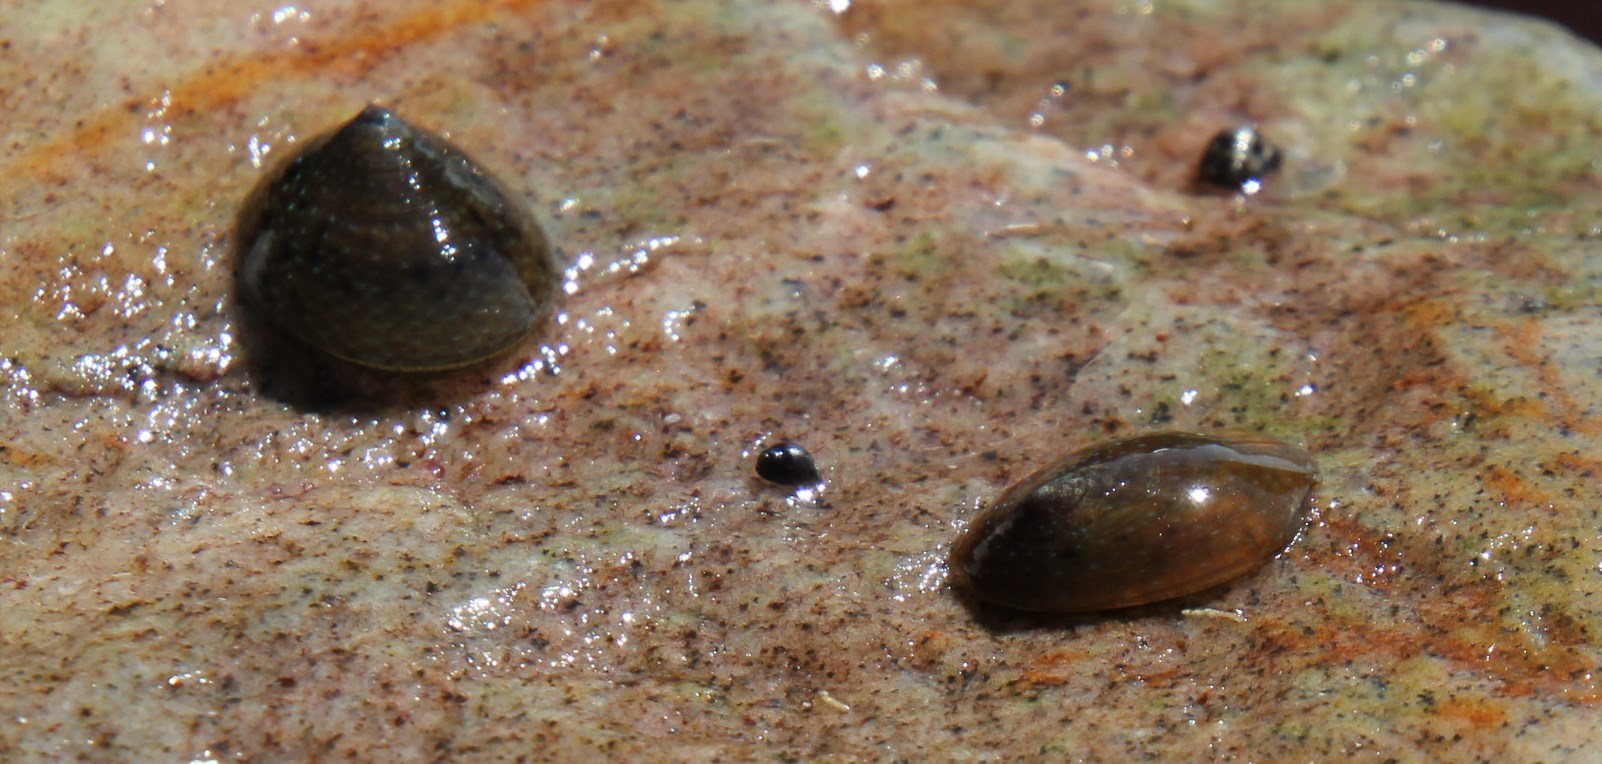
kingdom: Animalia
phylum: Mollusca
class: Gastropoda
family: Patellidae
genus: Helcion
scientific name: Helcion pruinosus
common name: Rayed limpet
